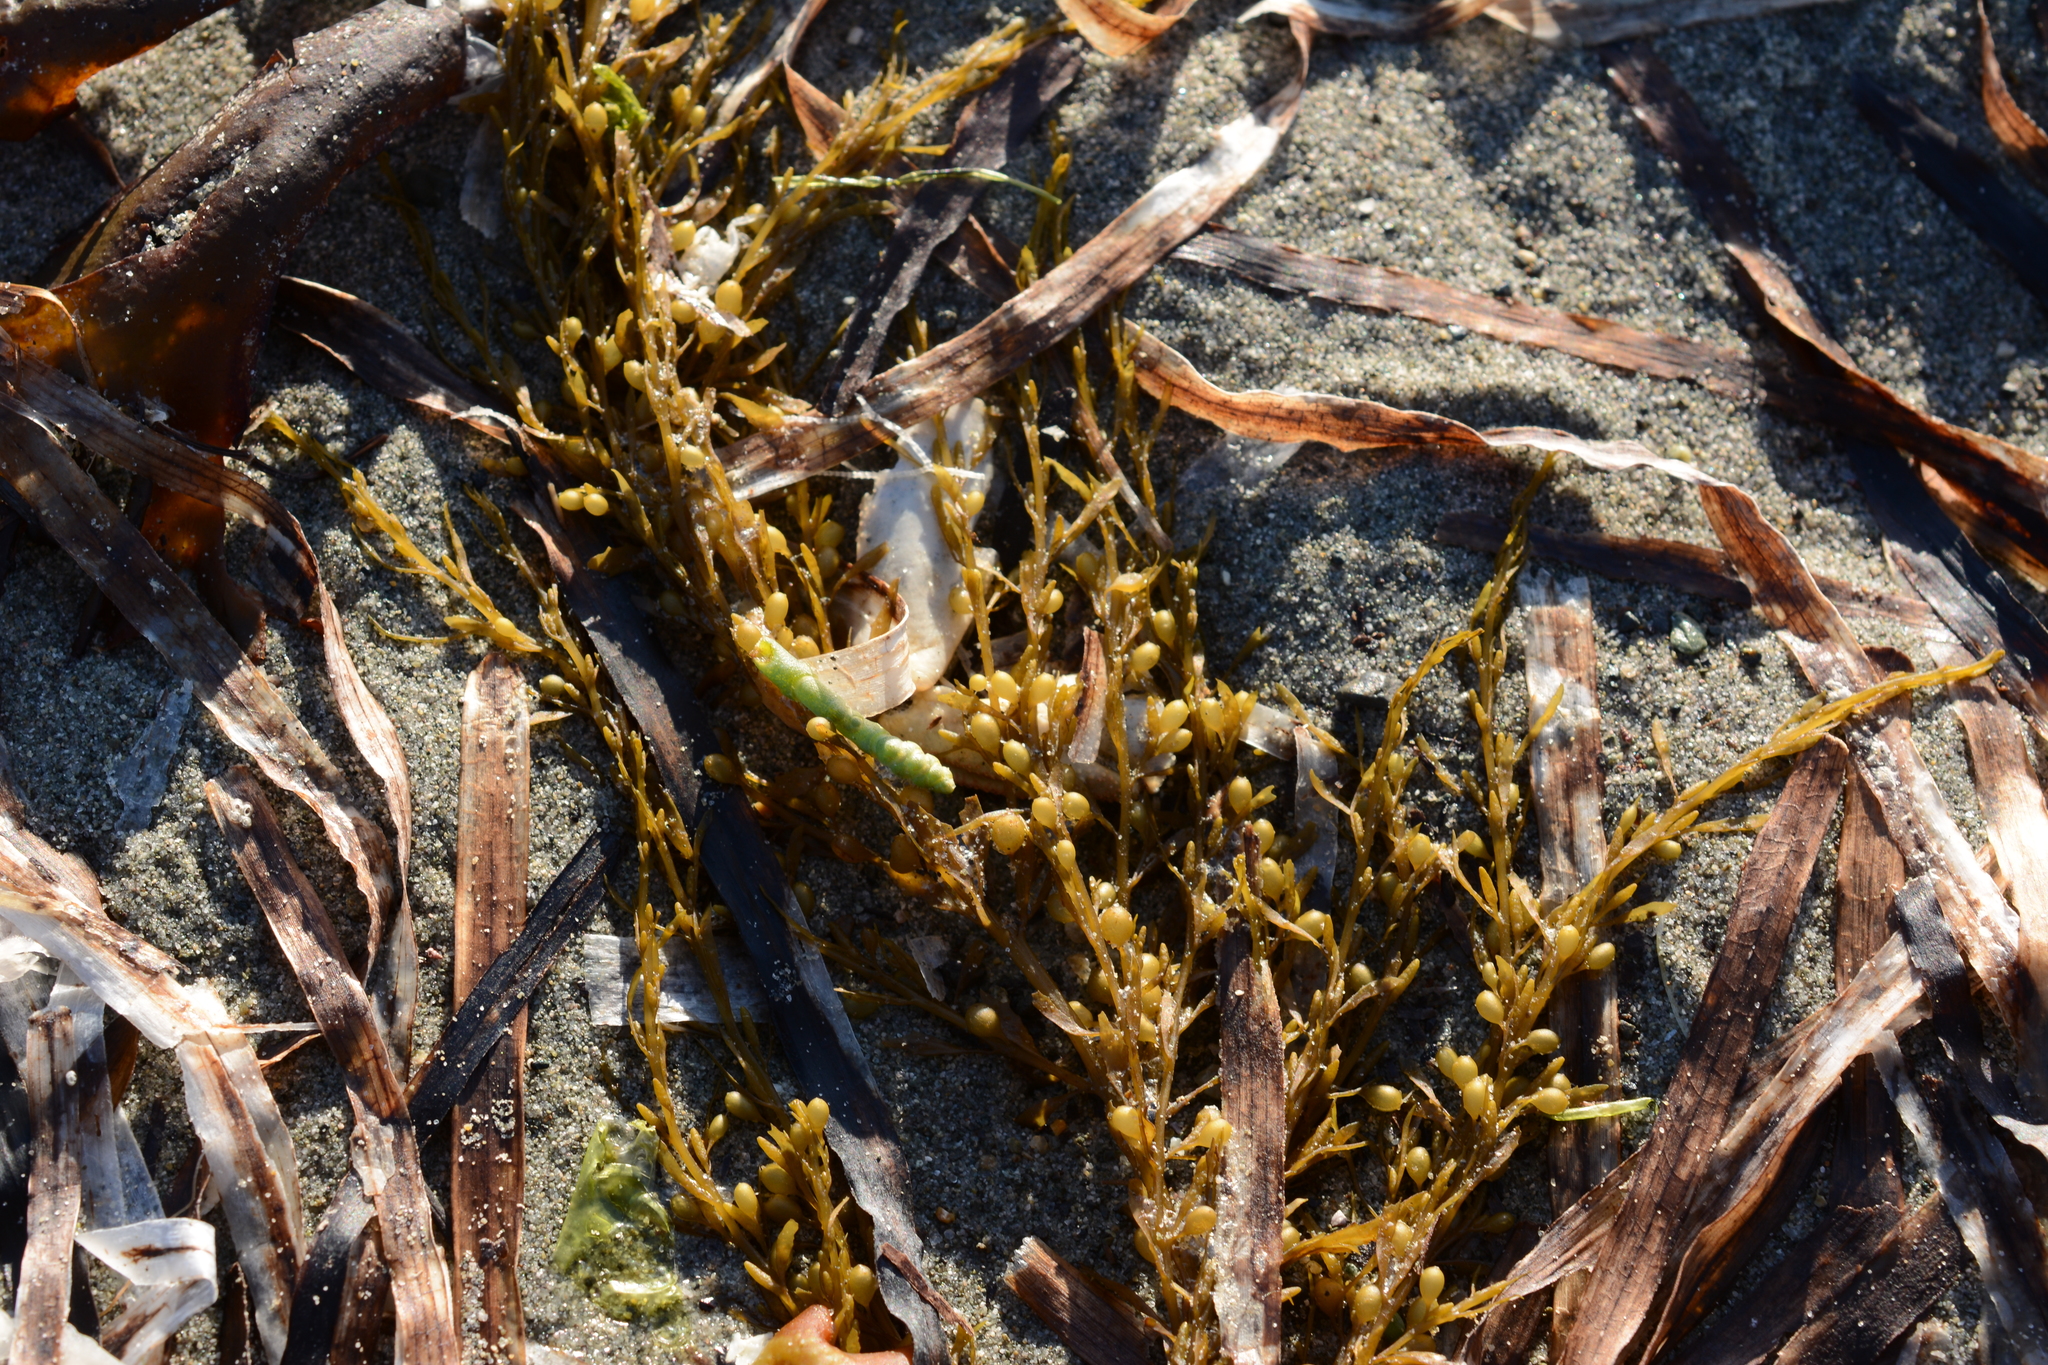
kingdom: Chromista
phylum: Ochrophyta
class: Phaeophyceae
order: Fucales
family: Sargassaceae
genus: Sargassum
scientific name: Sargassum muticum
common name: Japweed
